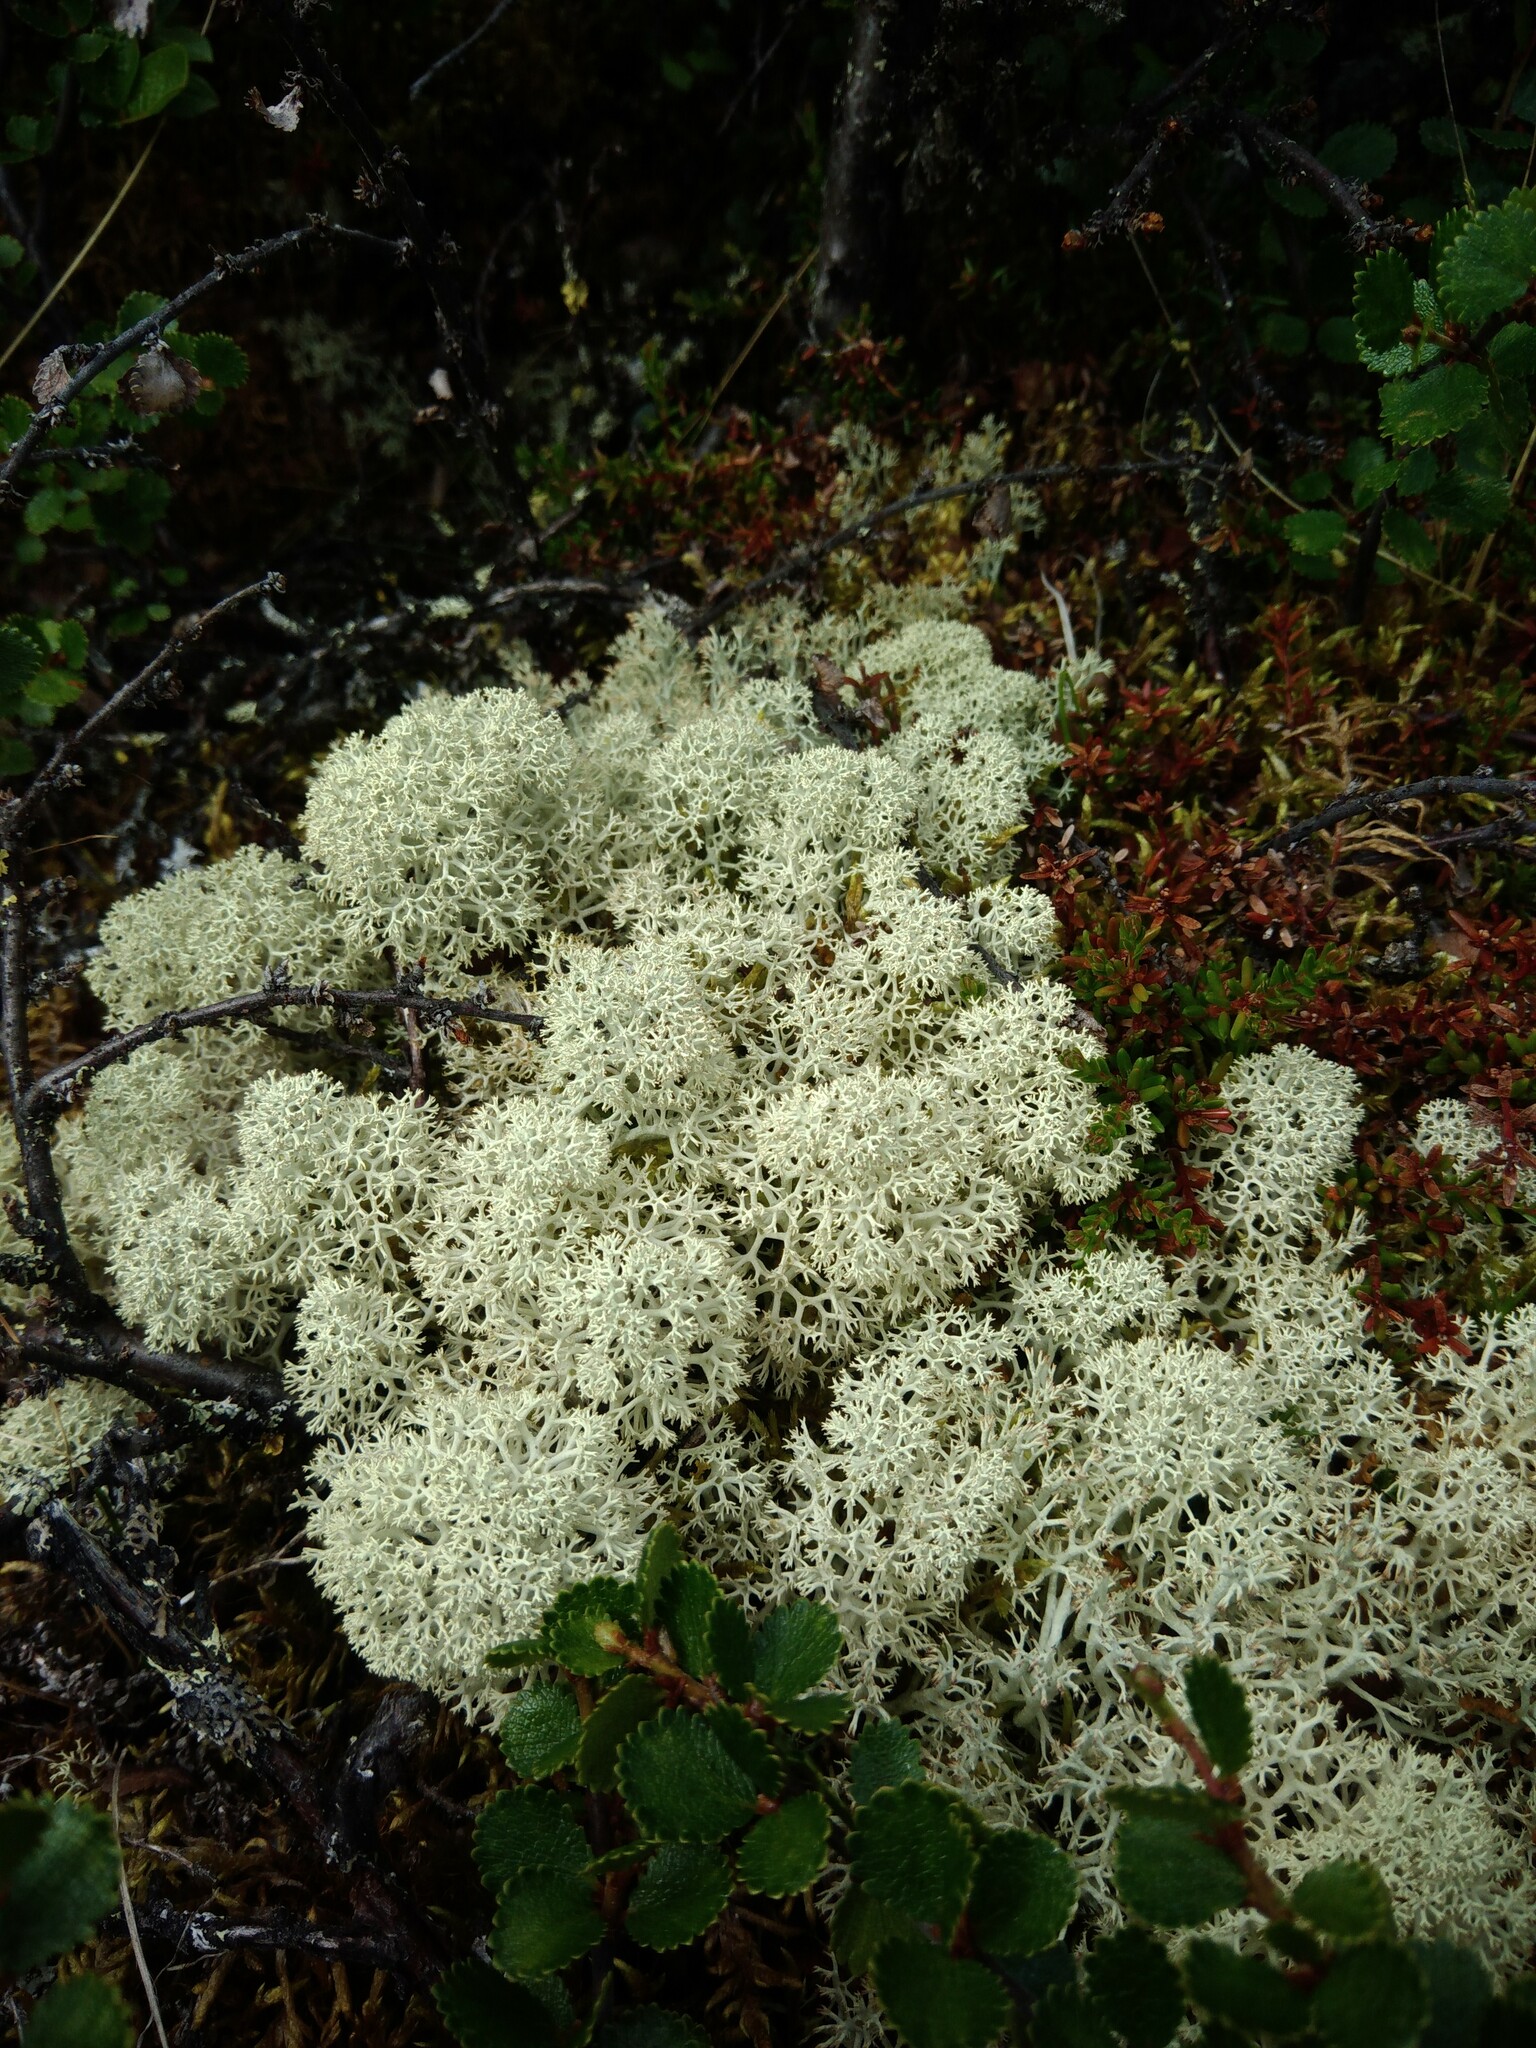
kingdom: Fungi
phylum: Ascomycota
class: Lecanoromycetes
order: Lecanorales
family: Cladoniaceae
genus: Cladonia
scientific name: Cladonia stellaris
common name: Star-tipped reindeer lichen
